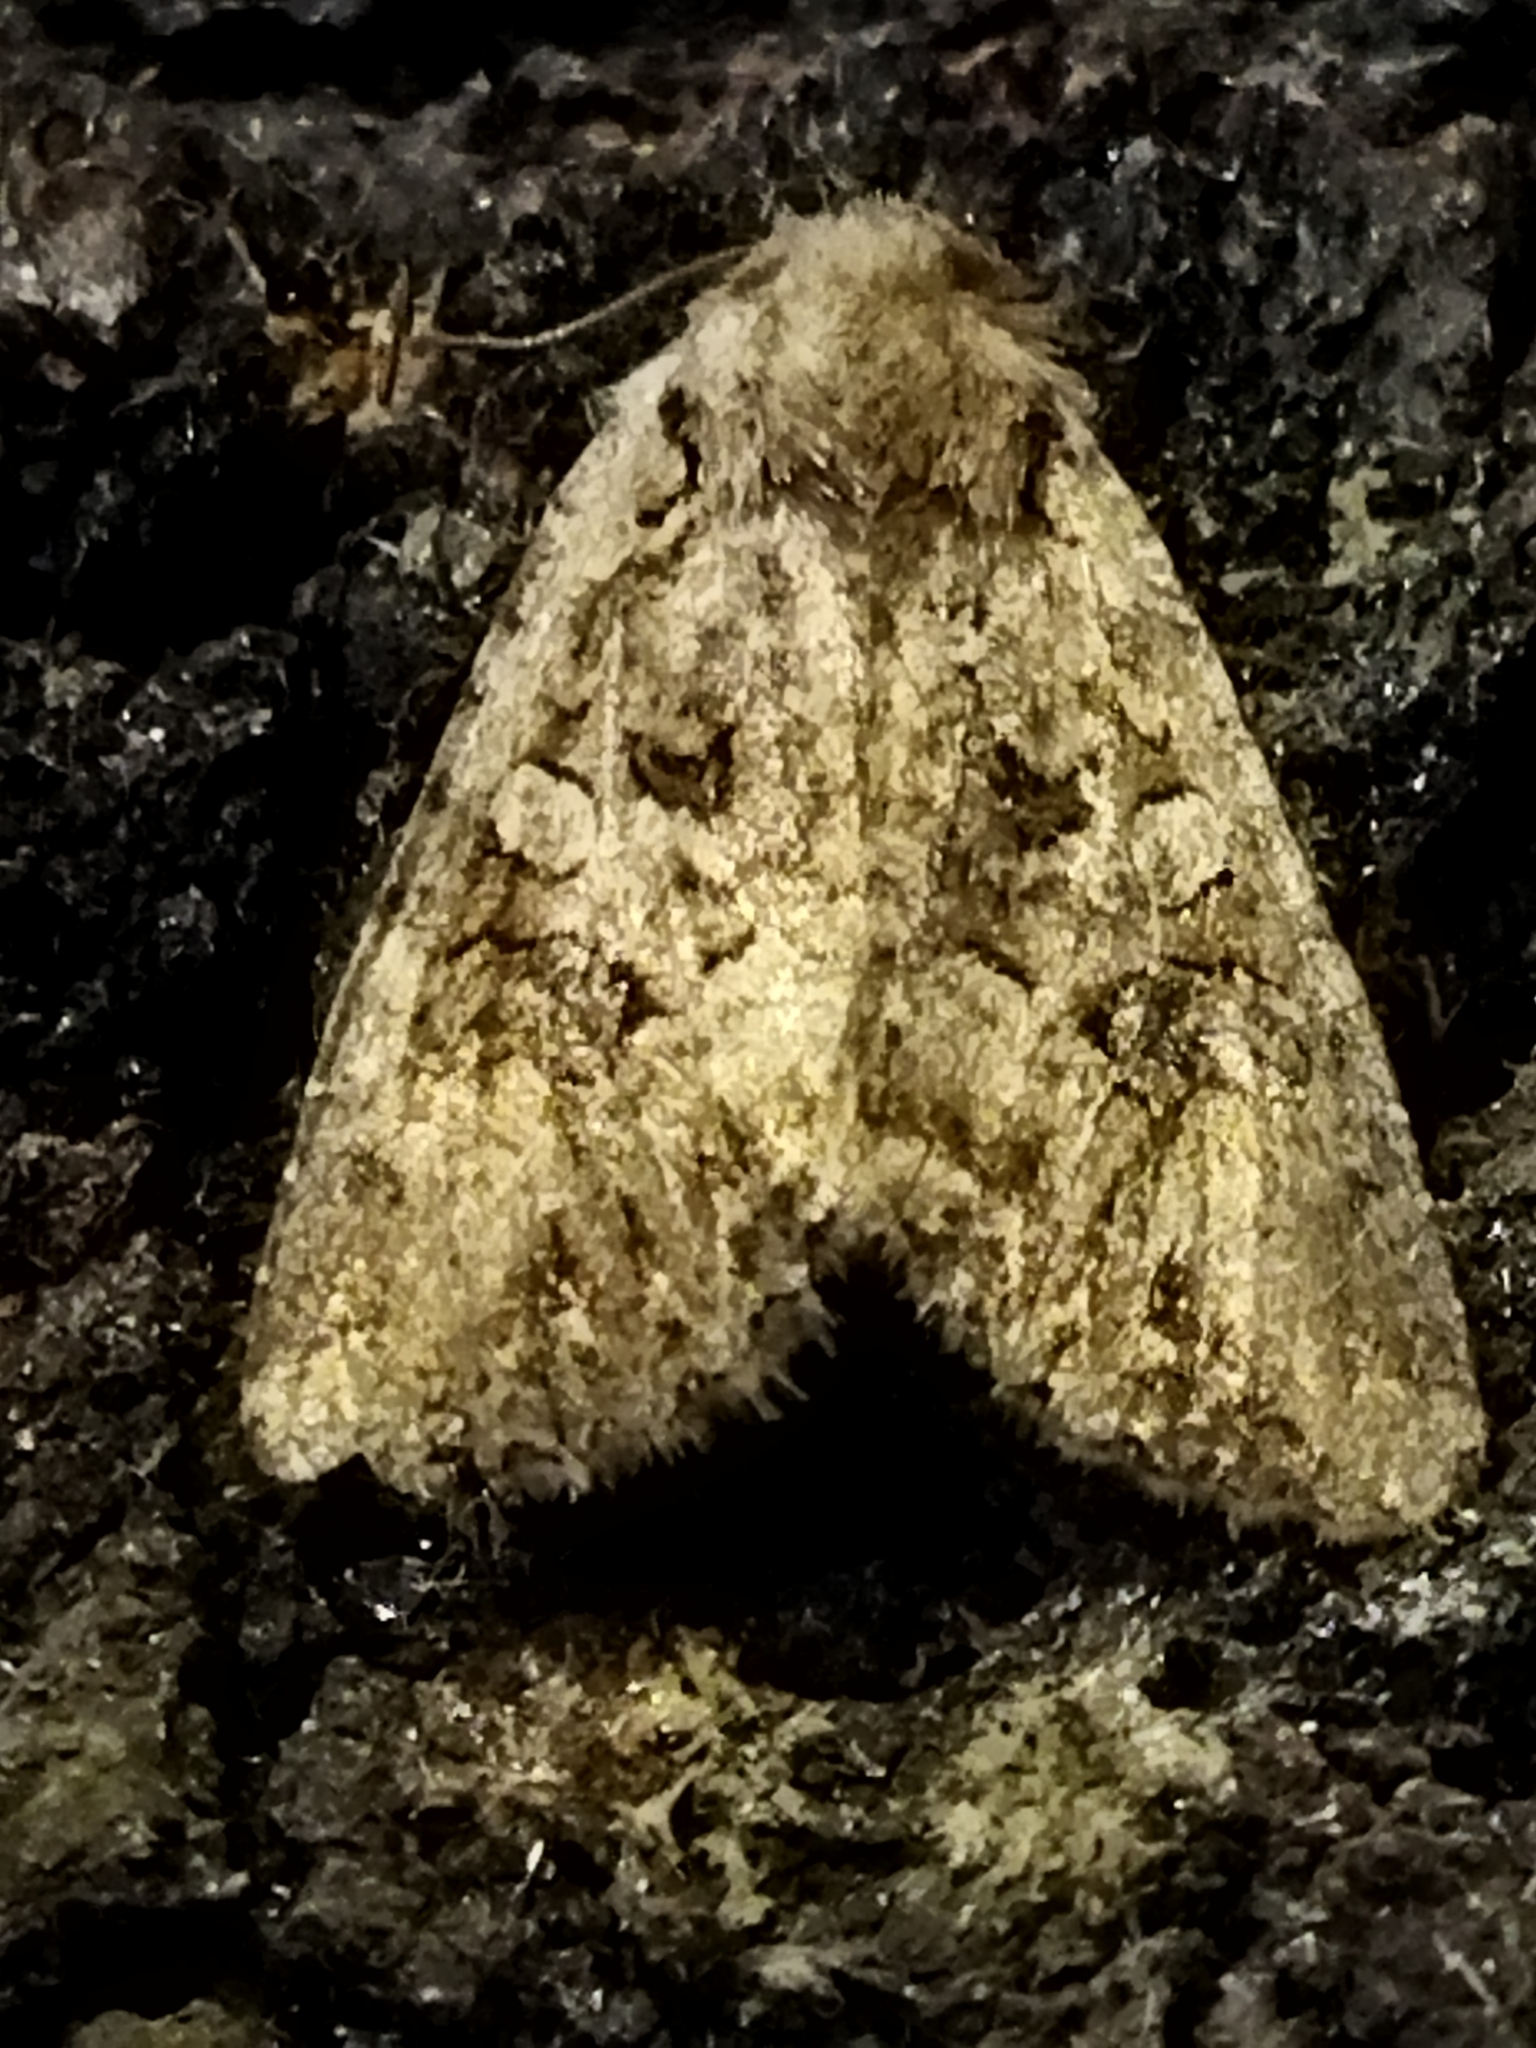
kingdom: Animalia
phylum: Arthropoda
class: Insecta
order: Lepidoptera
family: Noctuidae
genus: Anarta
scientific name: Anarta trifolii
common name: Clover cutworm moth
